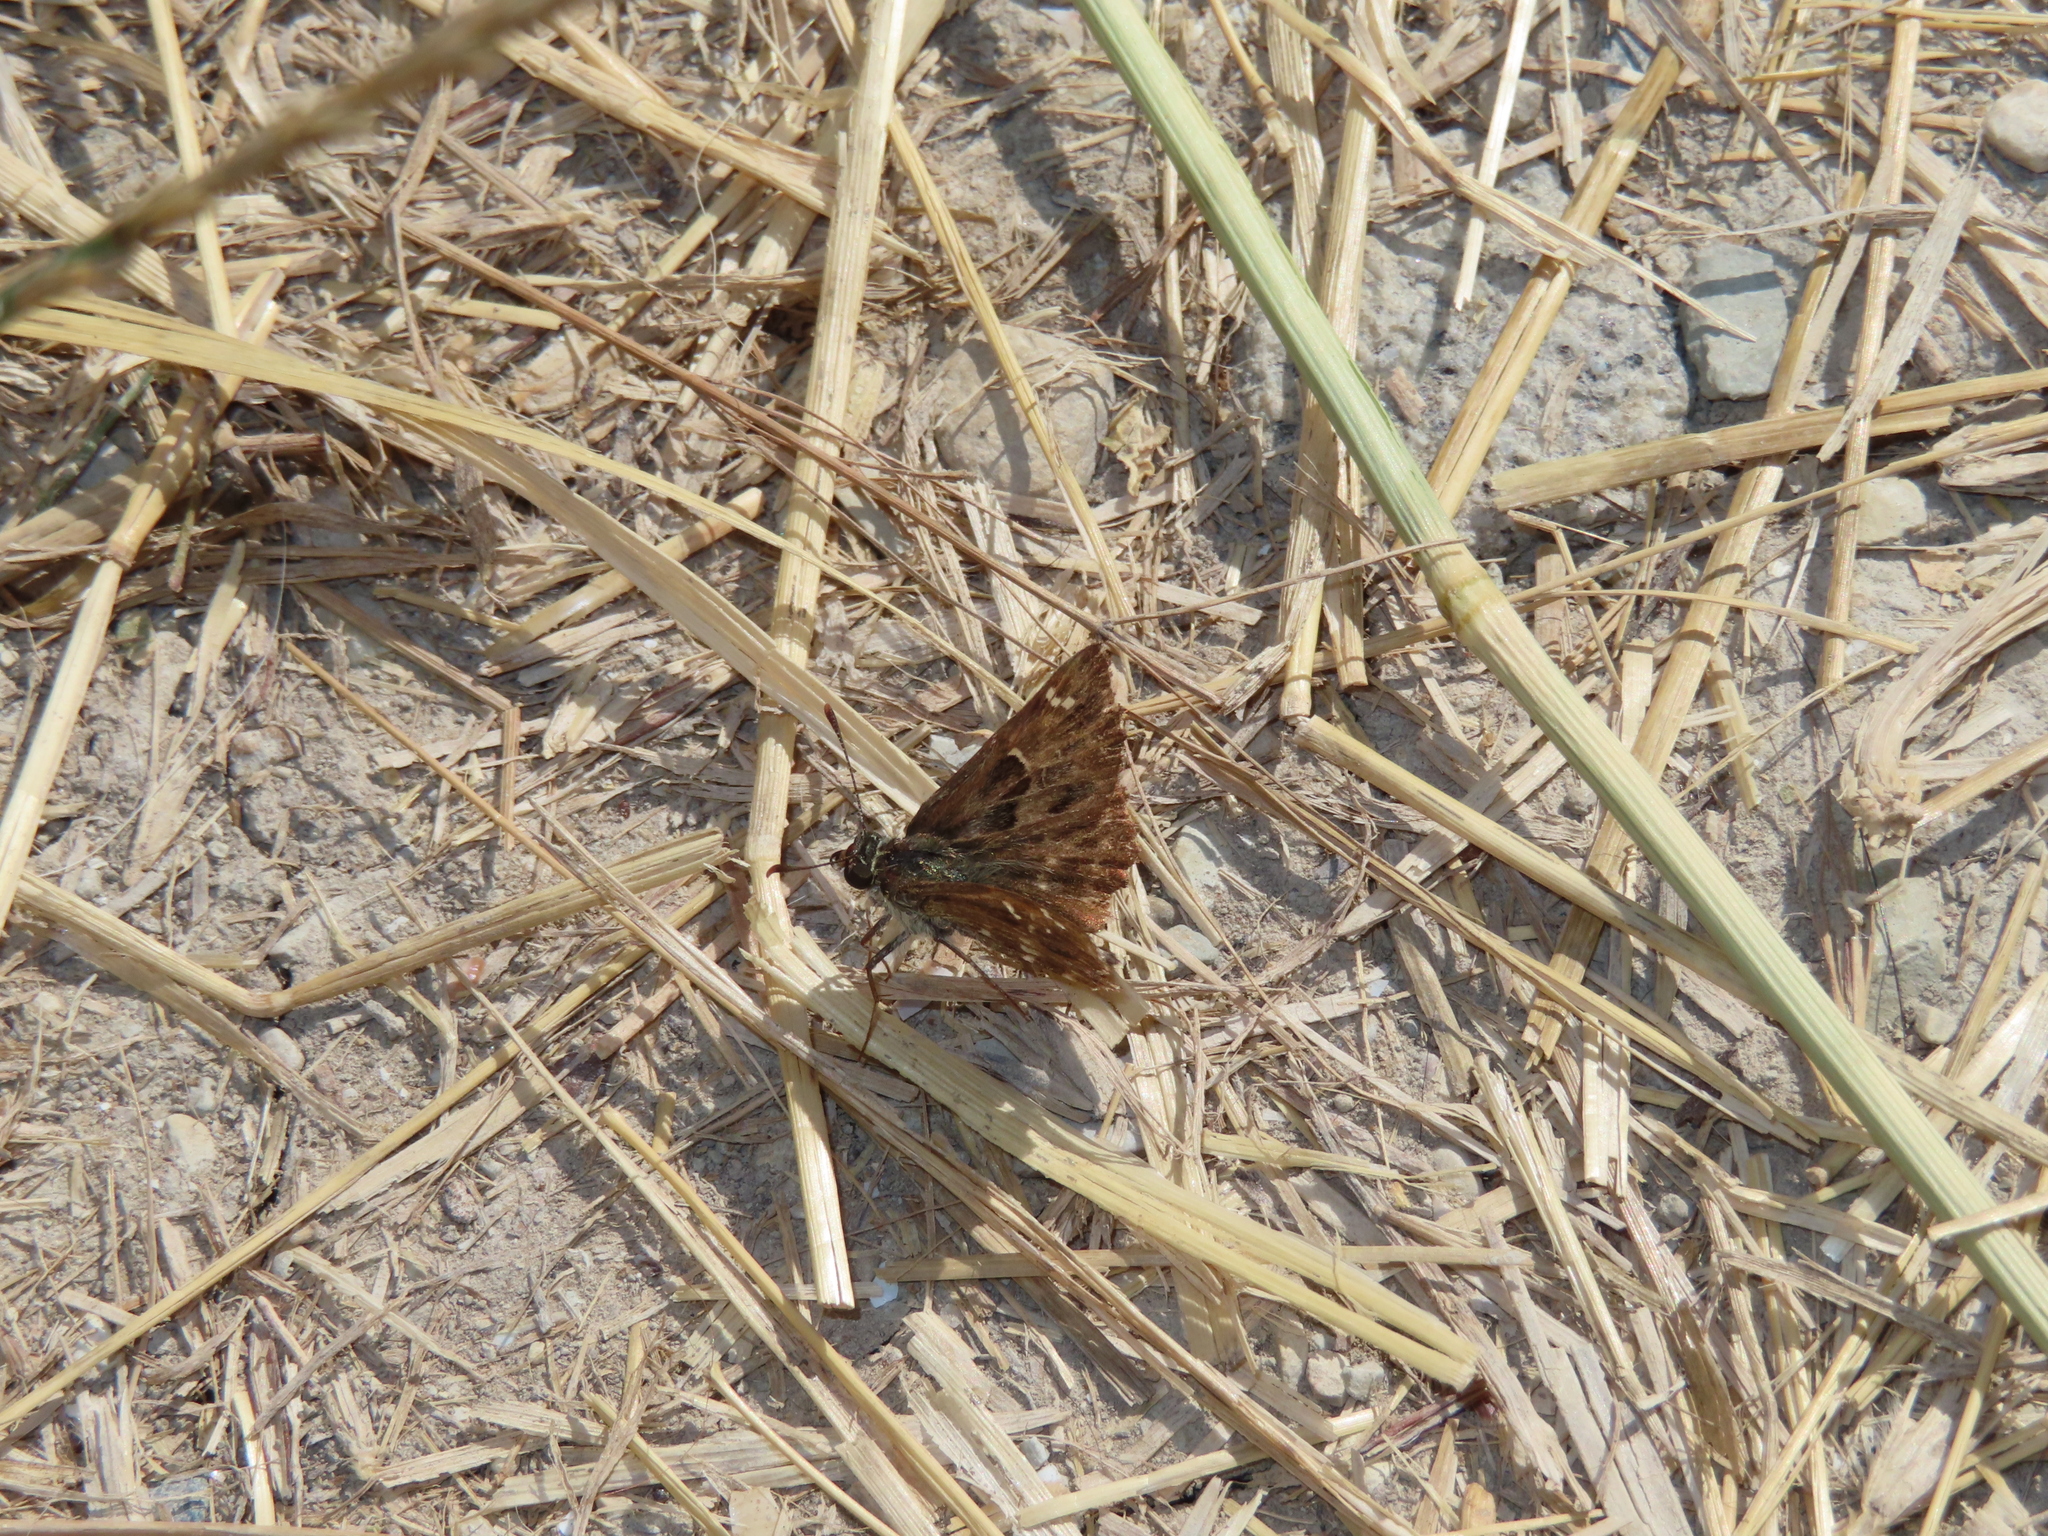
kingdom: Animalia
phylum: Arthropoda
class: Insecta
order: Lepidoptera
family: Hesperiidae
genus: Carcharodus
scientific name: Carcharodus alceae
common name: Mallow skipper
